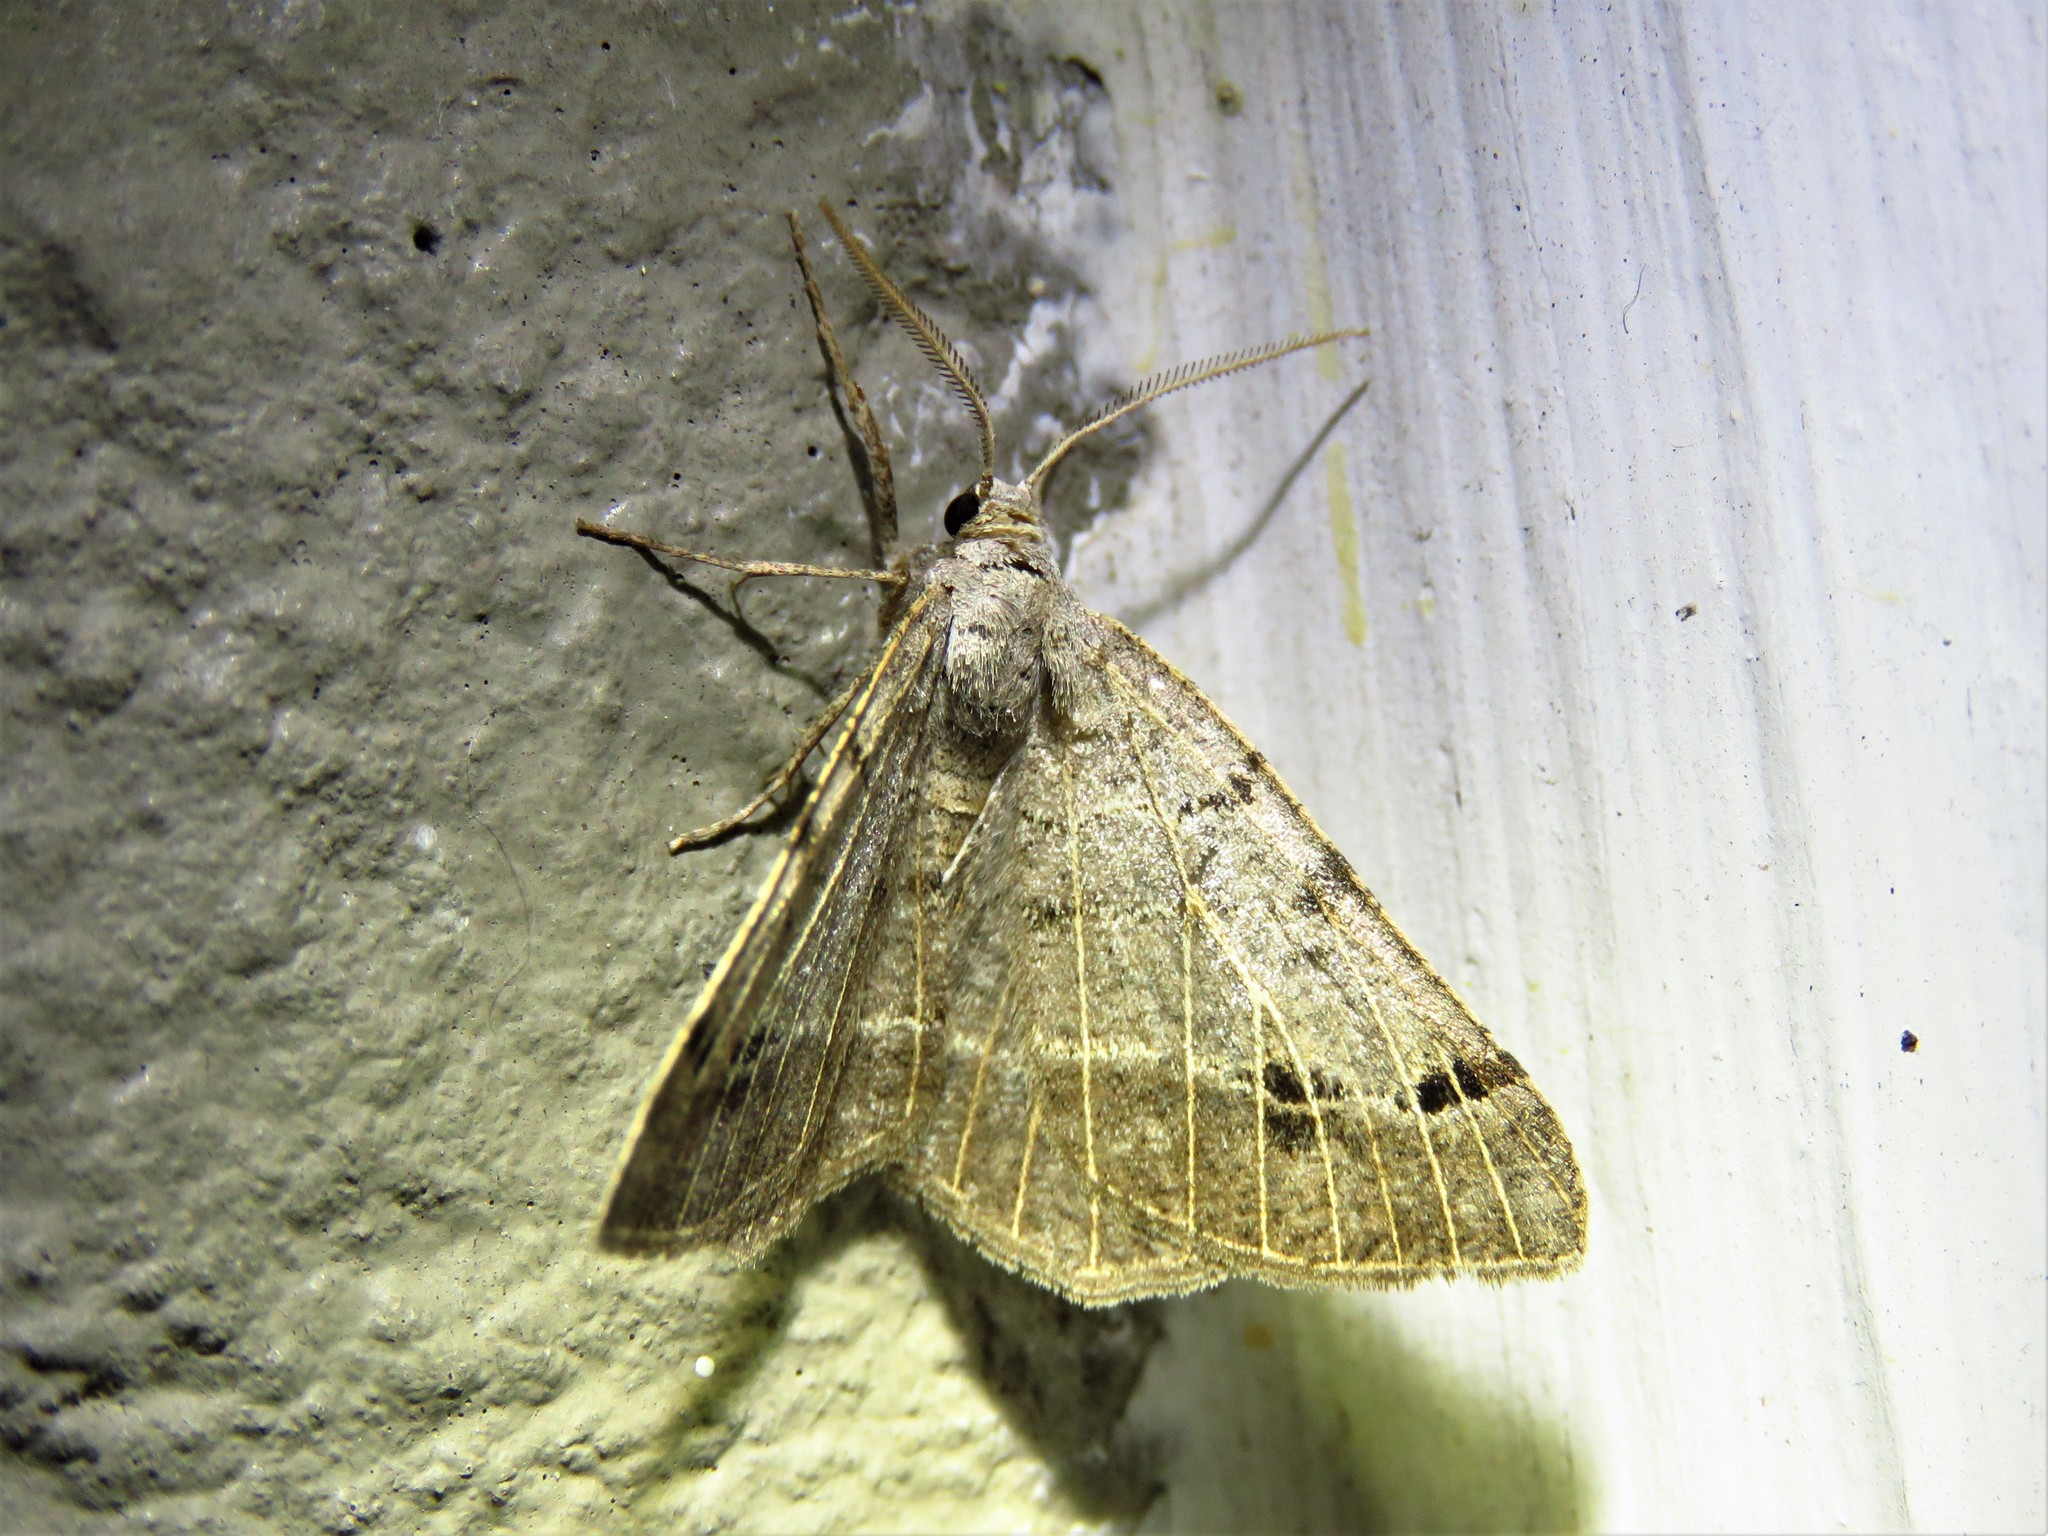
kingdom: Animalia
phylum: Arthropoda
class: Insecta
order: Lepidoptera
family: Geometridae
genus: Isturgia
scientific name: Isturgia dislocaria
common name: Pale-viened enconista
